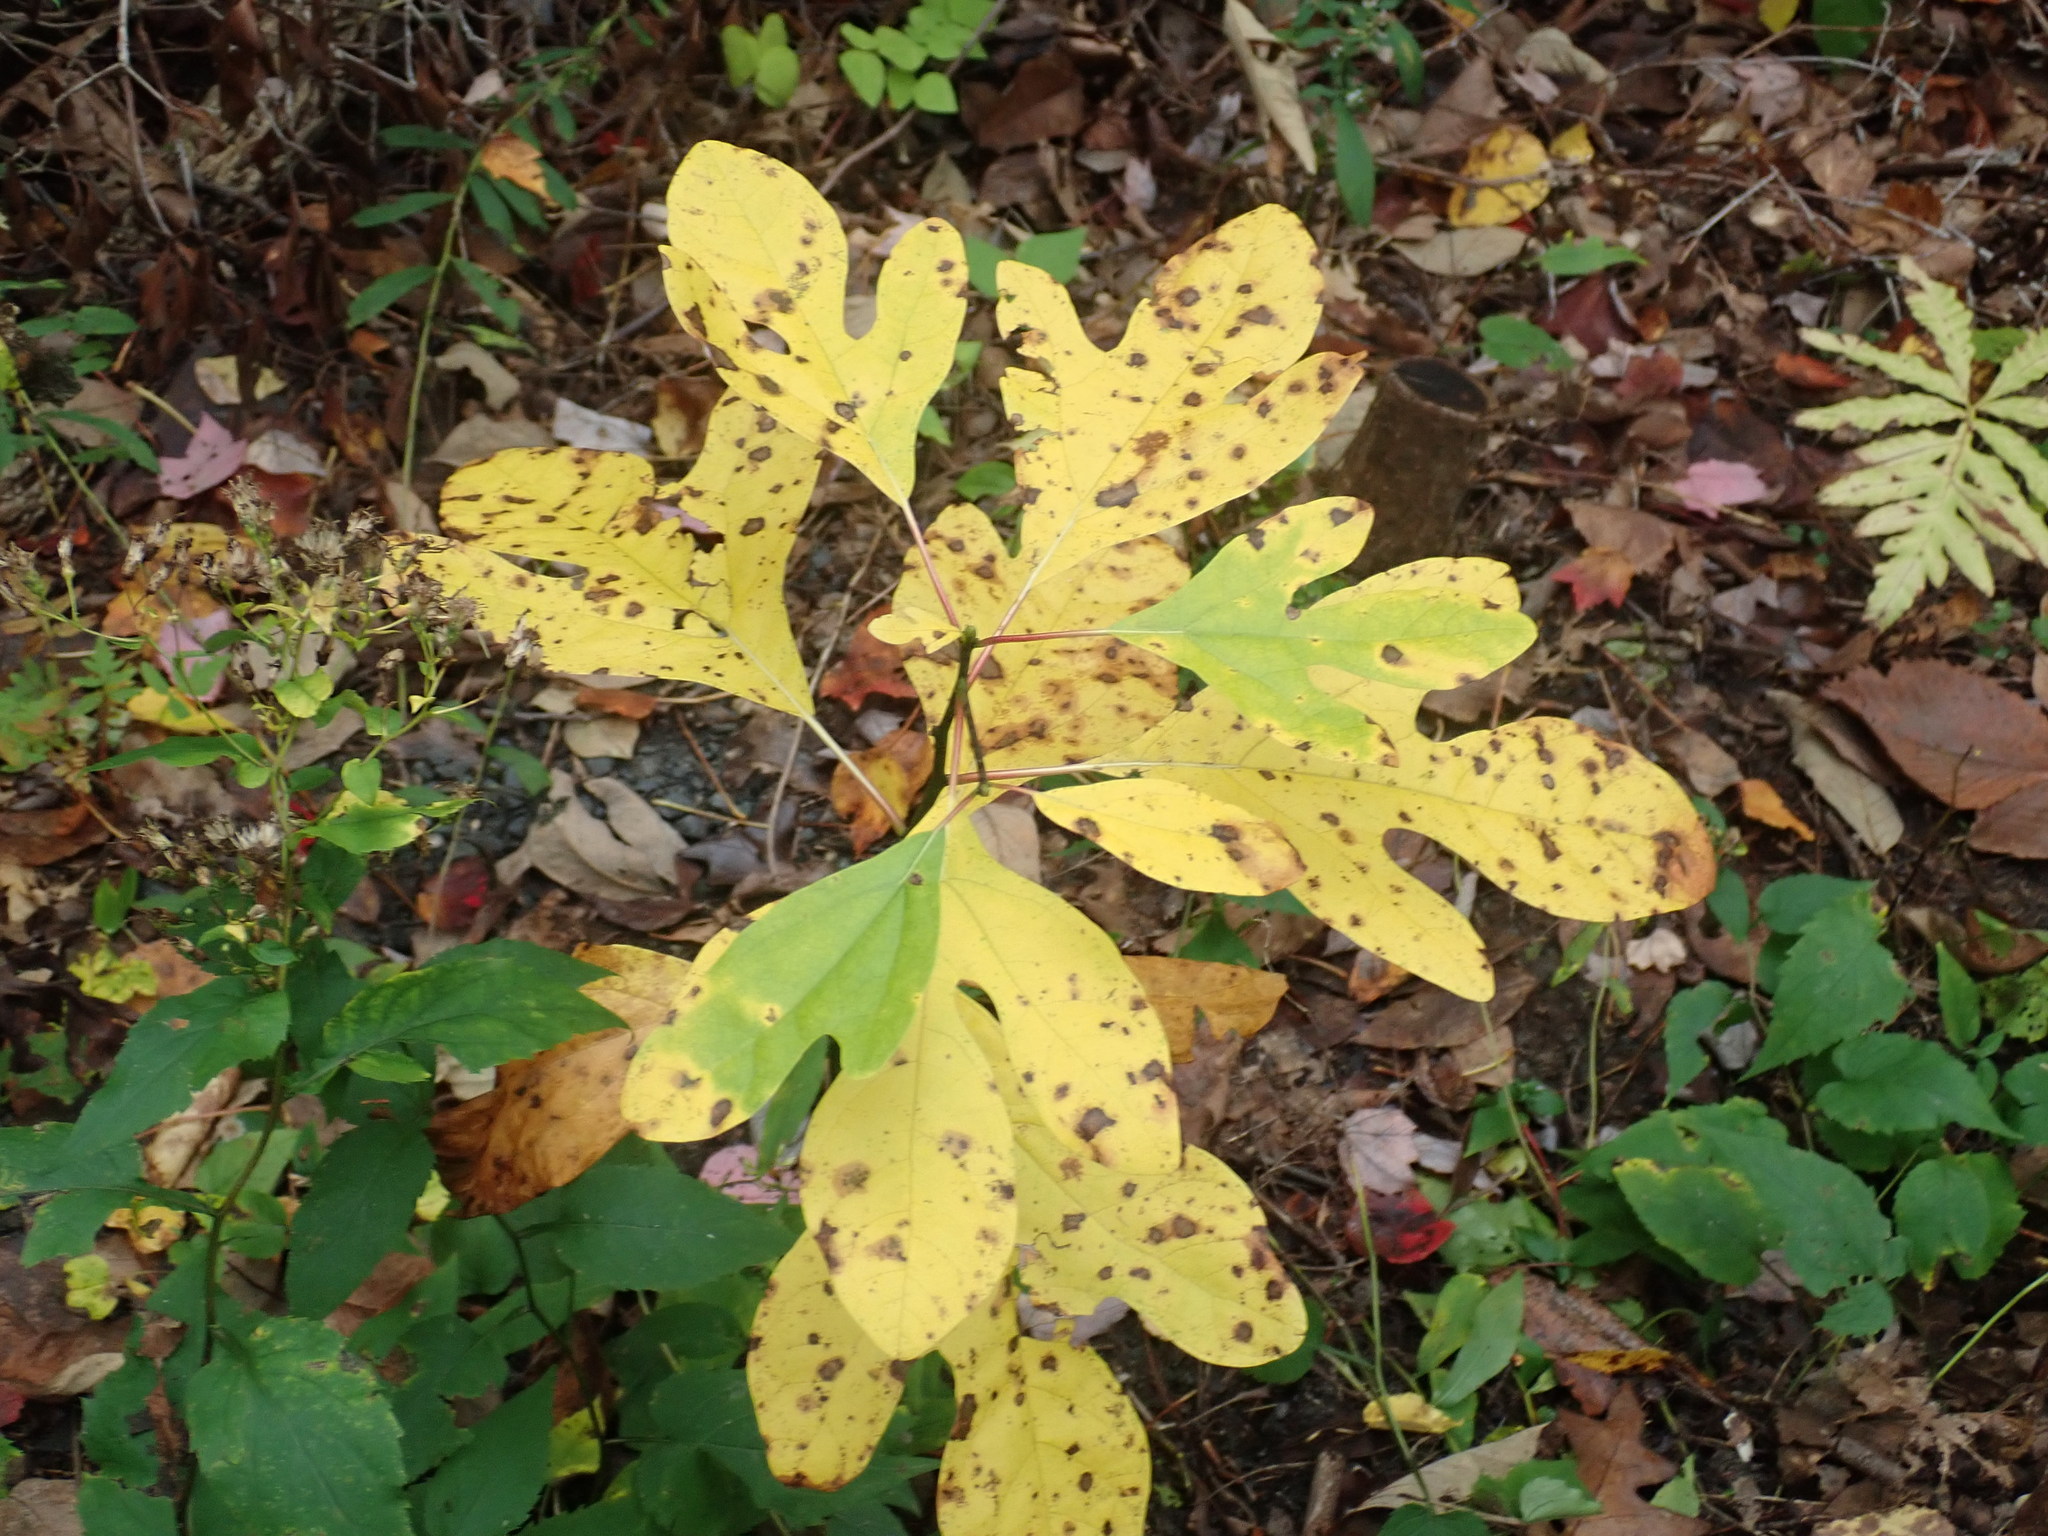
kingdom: Plantae
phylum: Tracheophyta
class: Magnoliopsida
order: Laurales
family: Lauraceae
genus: Sassafras
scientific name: Sassafras albidum
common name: Sassafras
